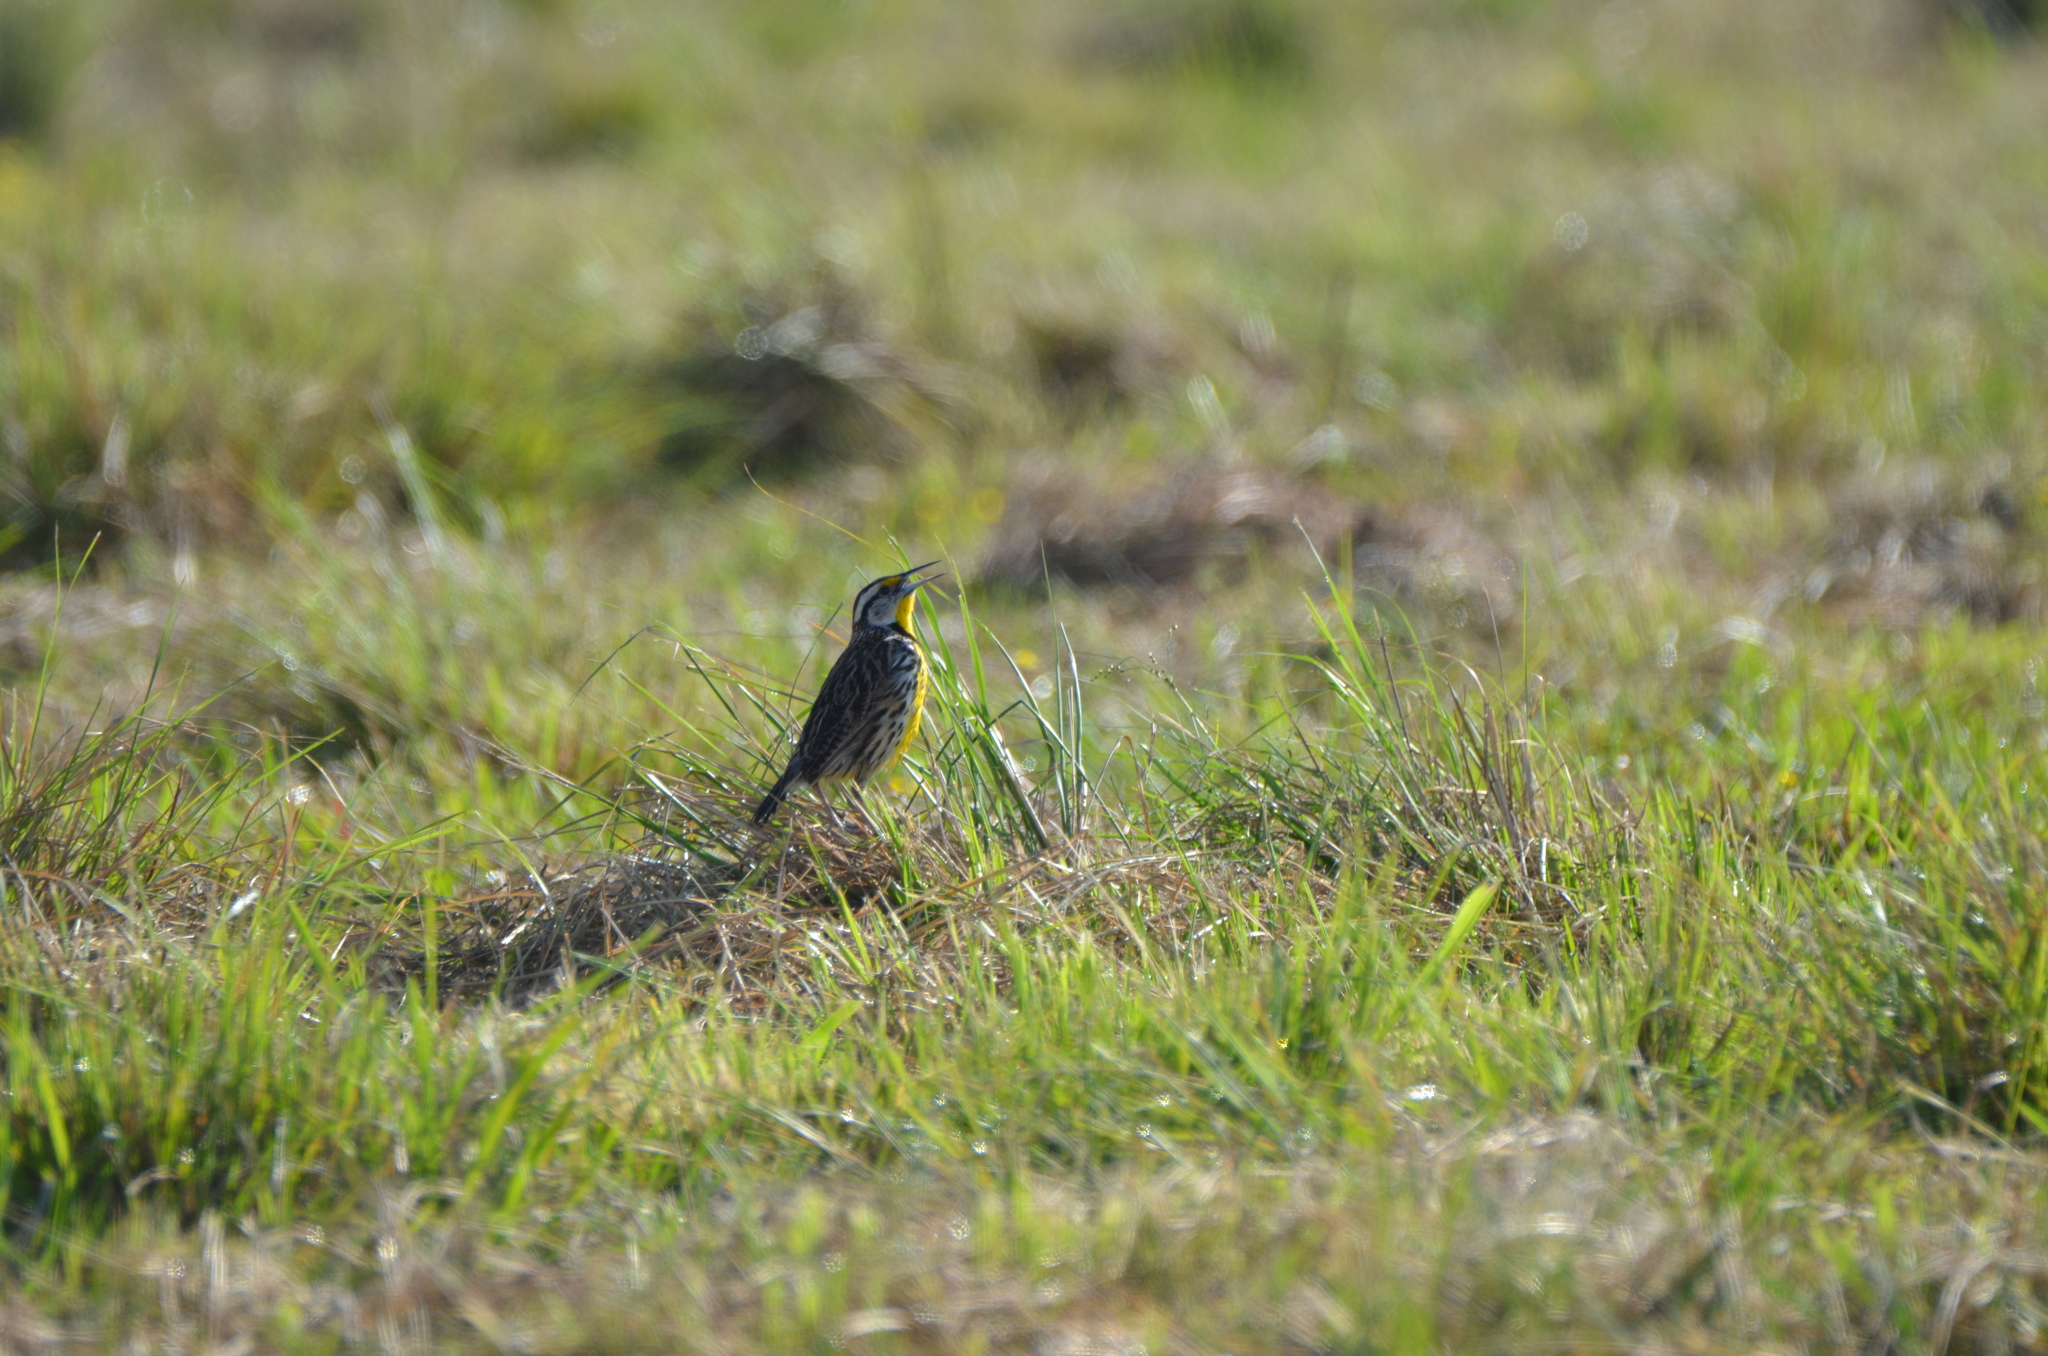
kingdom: Animalia
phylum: Chordata
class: Aves
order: Passeriformes
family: Icteridae
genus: Sturnella
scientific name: Sturnella magna
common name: Eastern meadowlark
